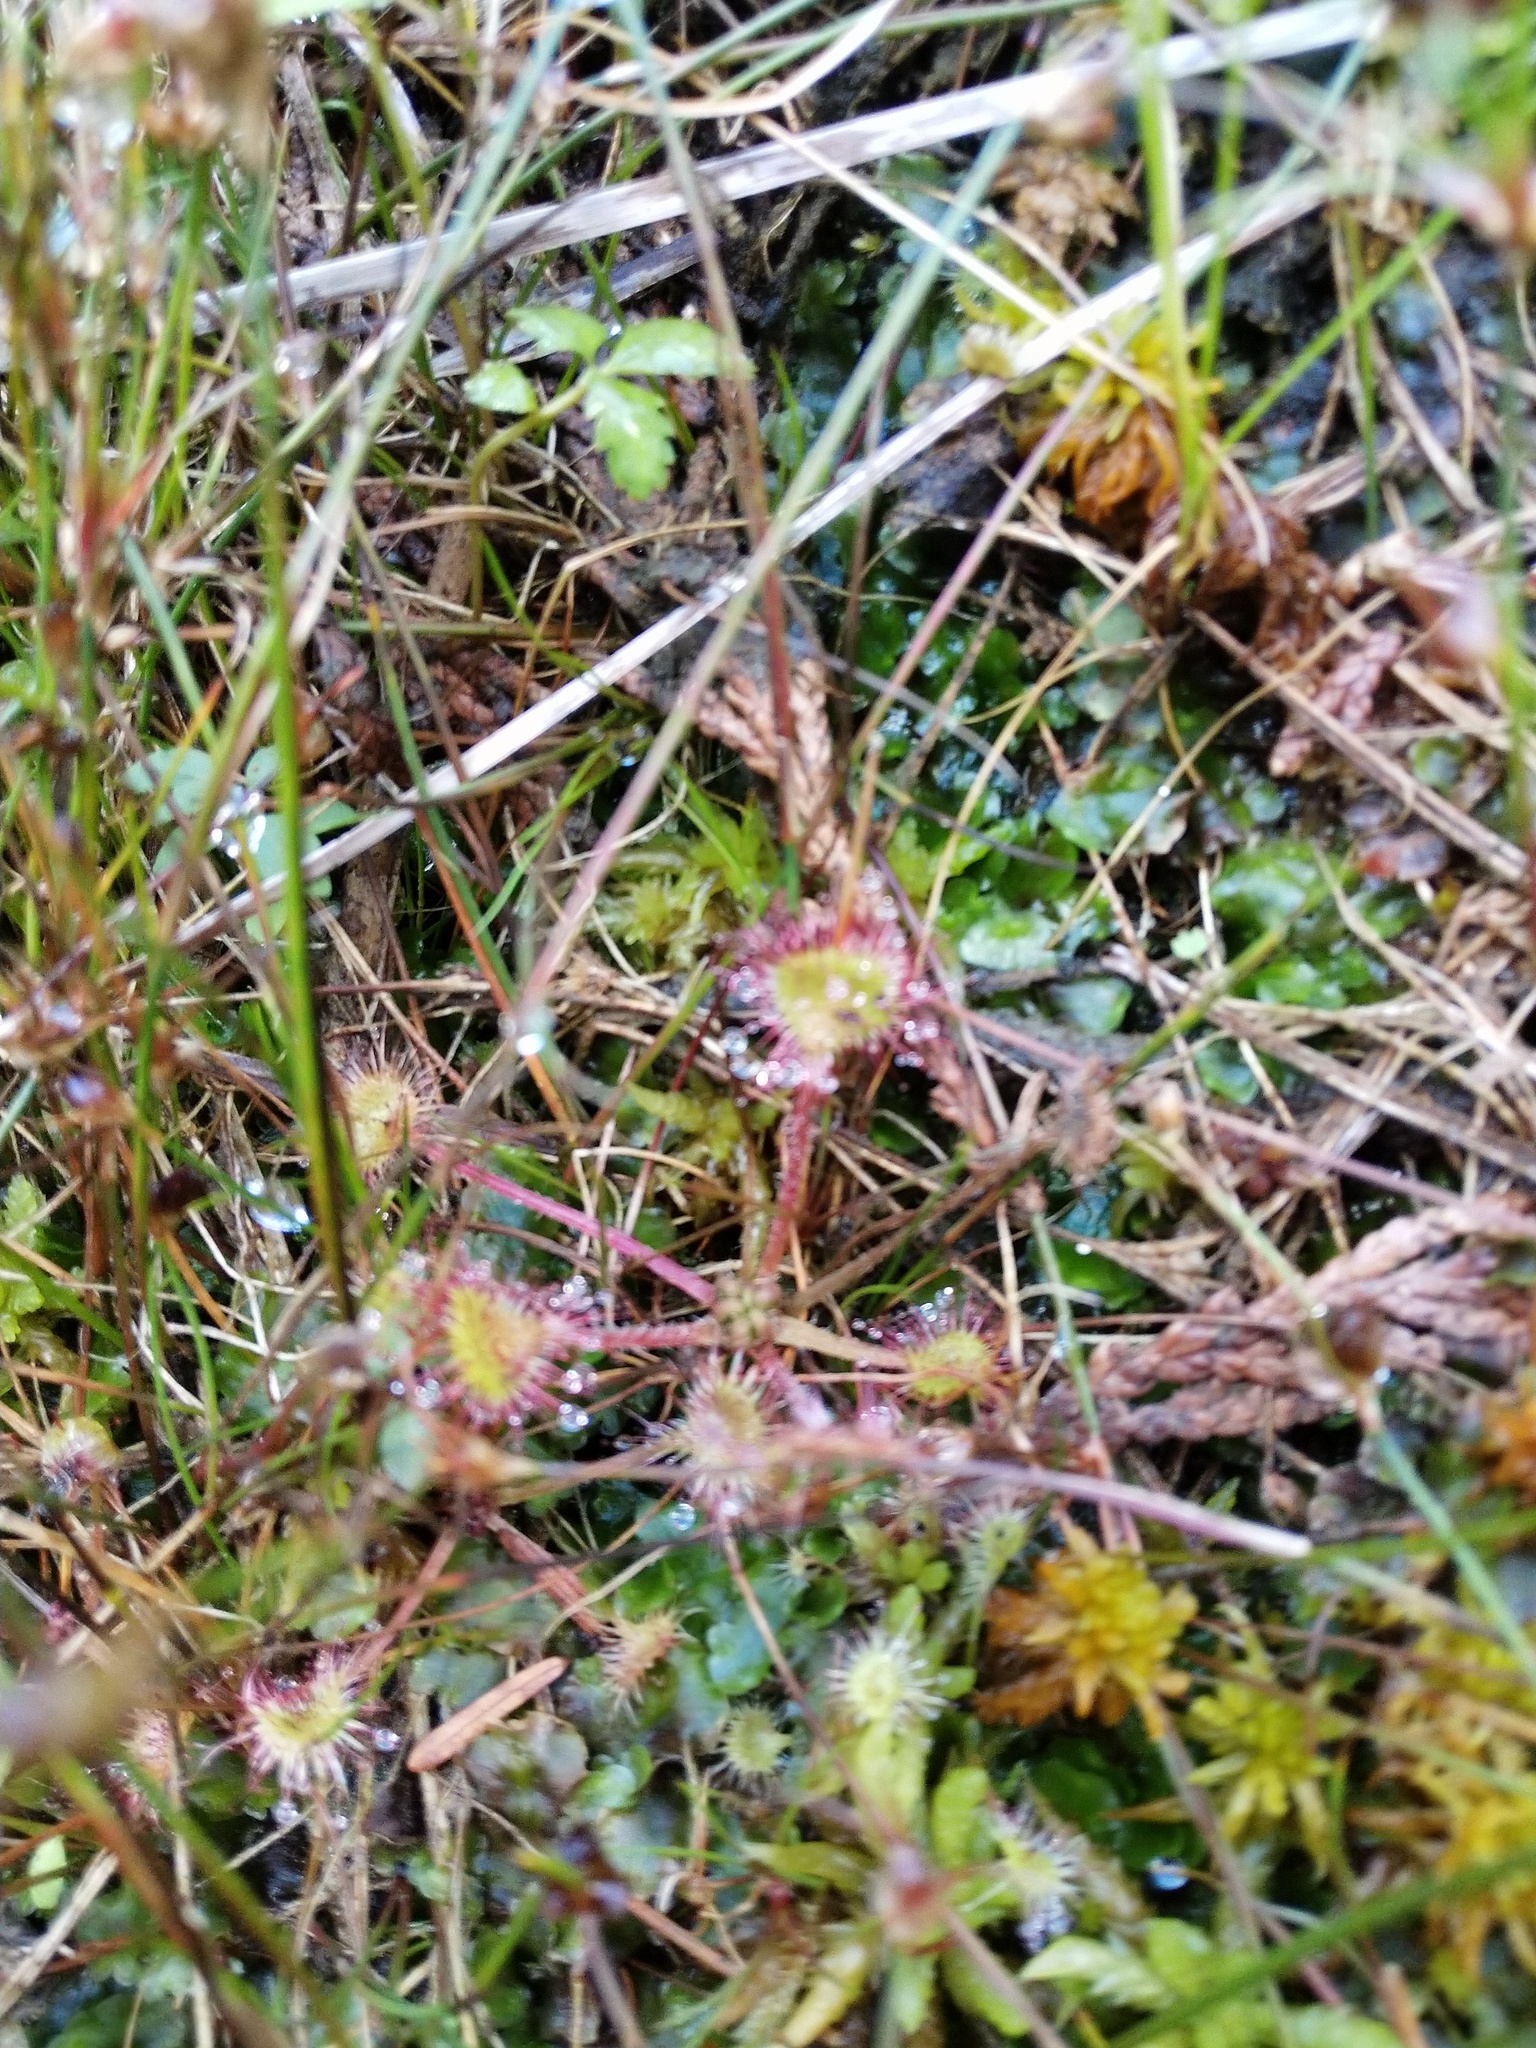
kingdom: Plantae
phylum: Tracheophyta
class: Magnoliopsida
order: Caryophyllales
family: Droseraceae
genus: Drosera
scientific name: Drosera rotundifolia
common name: Round-leaved sundew
